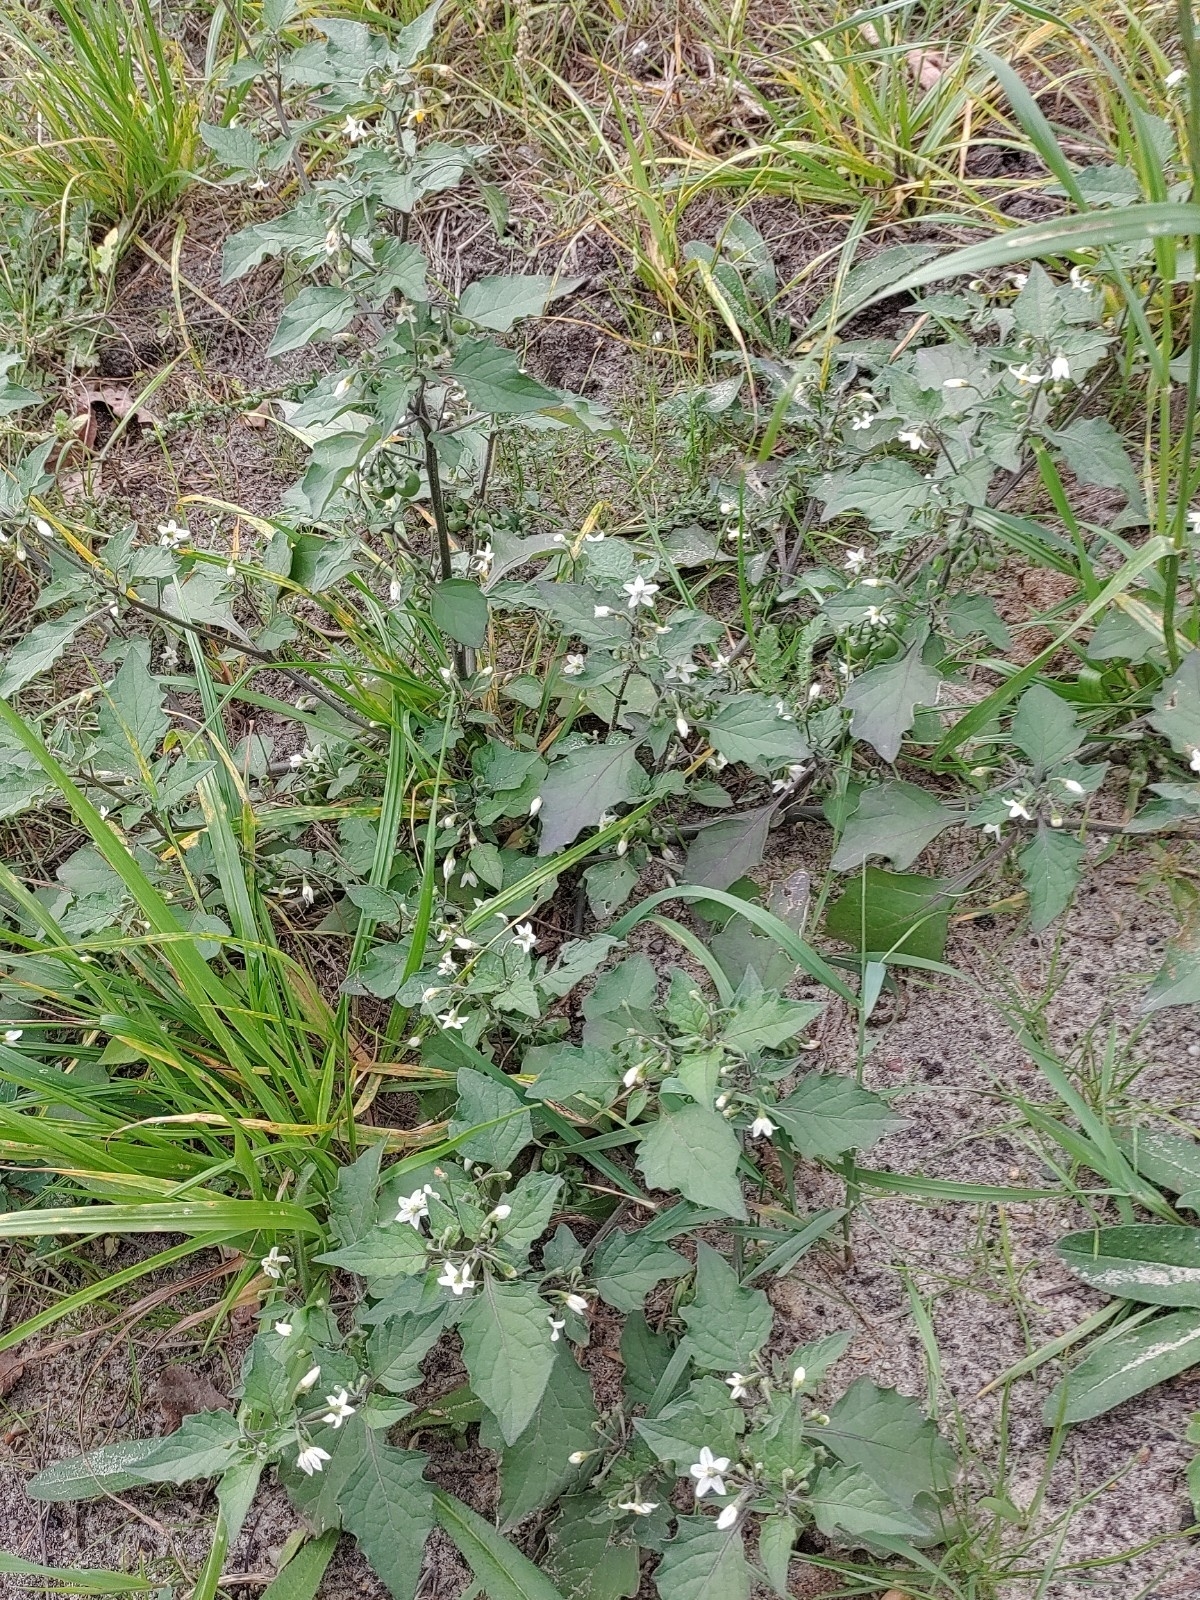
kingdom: Plantae
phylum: Tracheophyta
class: Magnoliopsida
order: Solanales
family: Solanaceae
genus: Solanum
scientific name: Solanum nigrum
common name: Black nightshade
